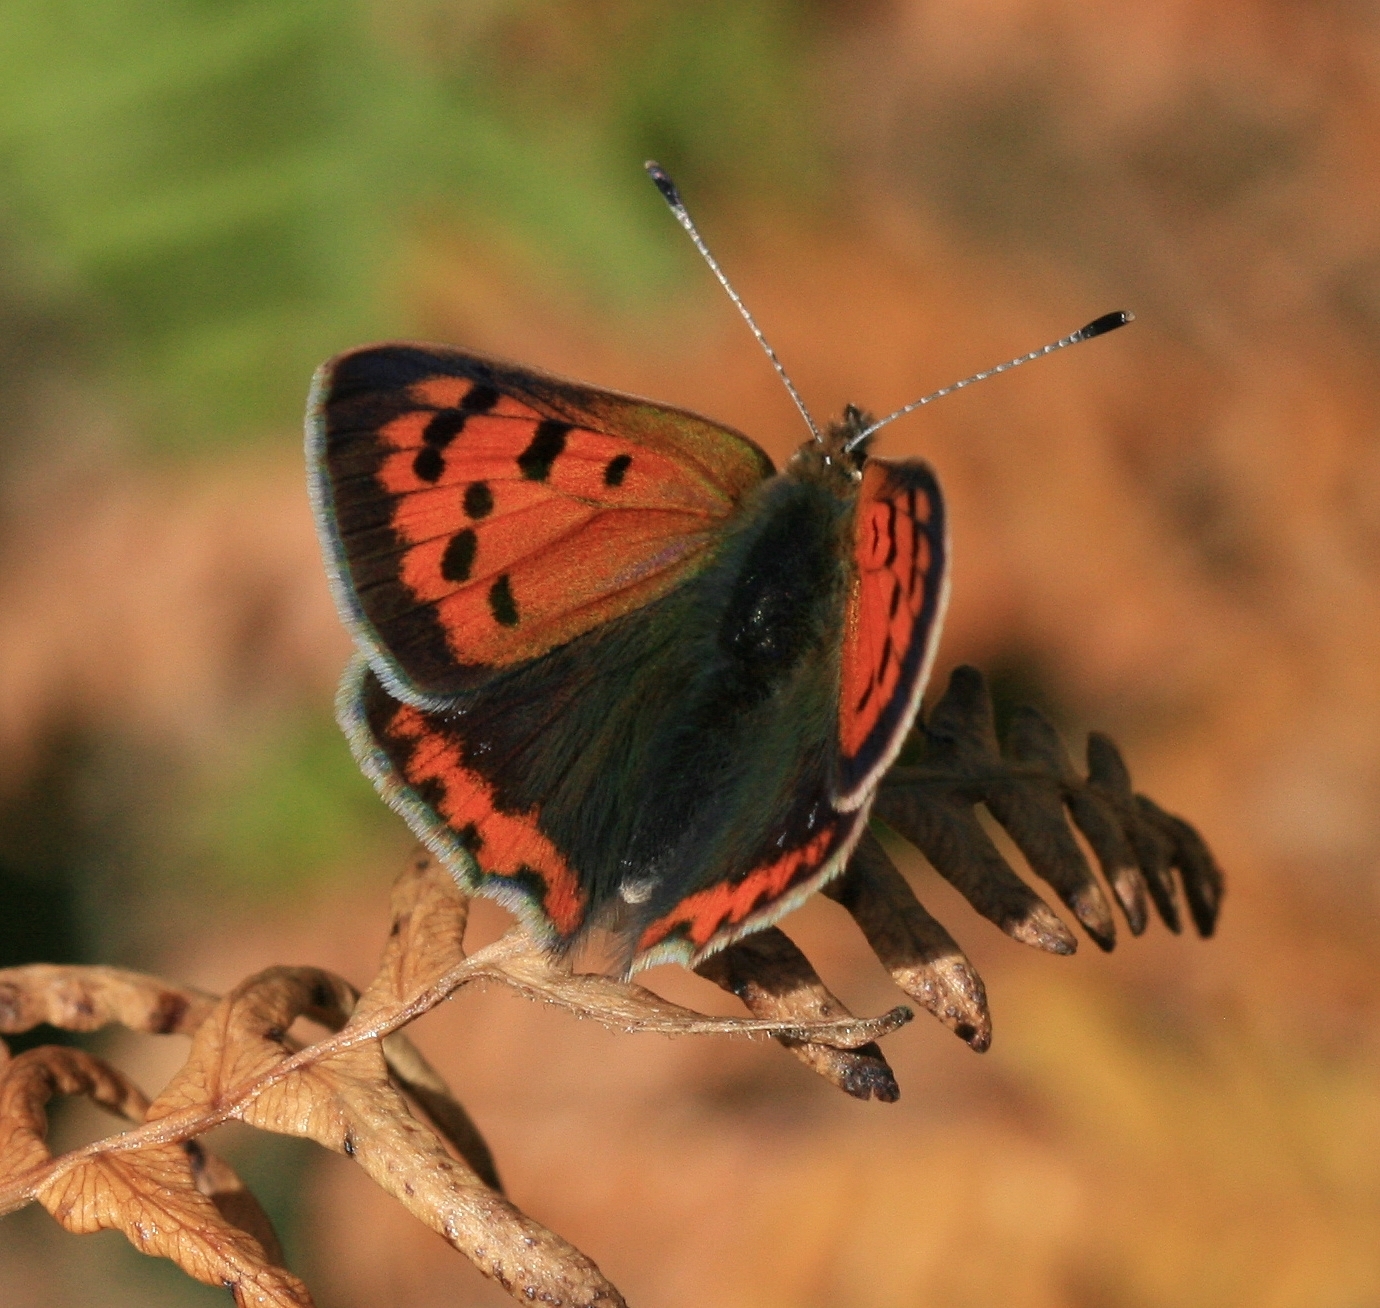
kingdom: Animalia
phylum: Arthropoda
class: Insecta
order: Lepidoptera
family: Lycaenidae
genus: Lycaena
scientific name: Lycaena phlaeas
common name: Small copper
